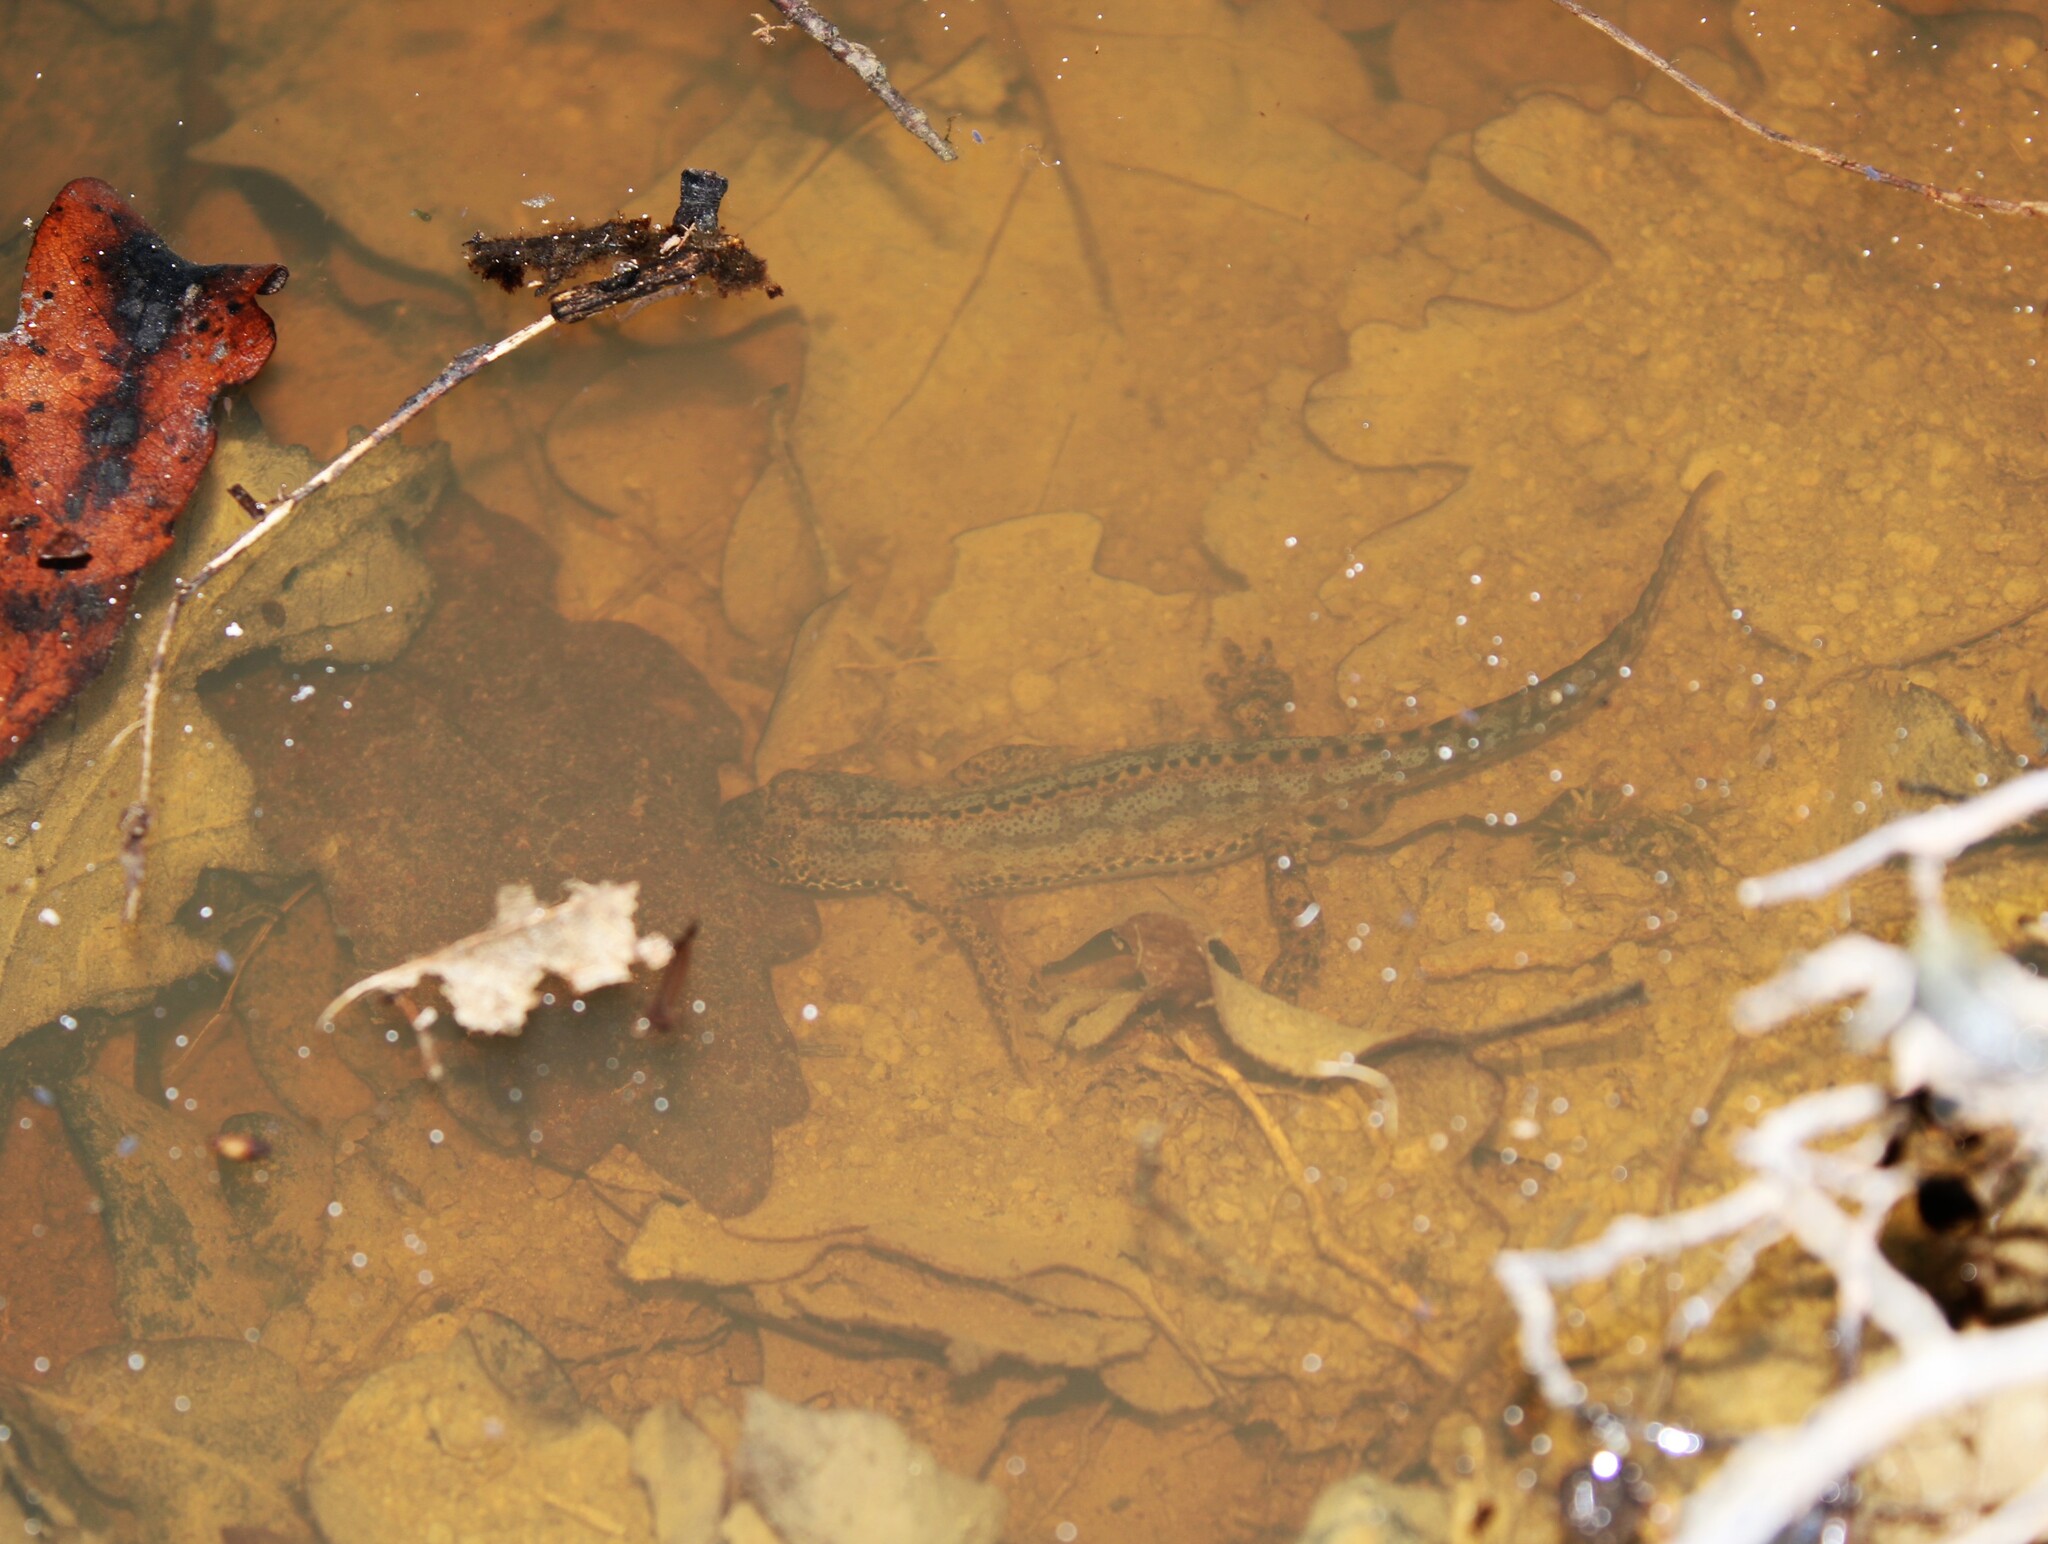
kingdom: Animalia
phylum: Chordata
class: Amphibia
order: Caudata
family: Salamandridae
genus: Ichthyosaura
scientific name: Ichthyosaura alpestris
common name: Alpine newt
